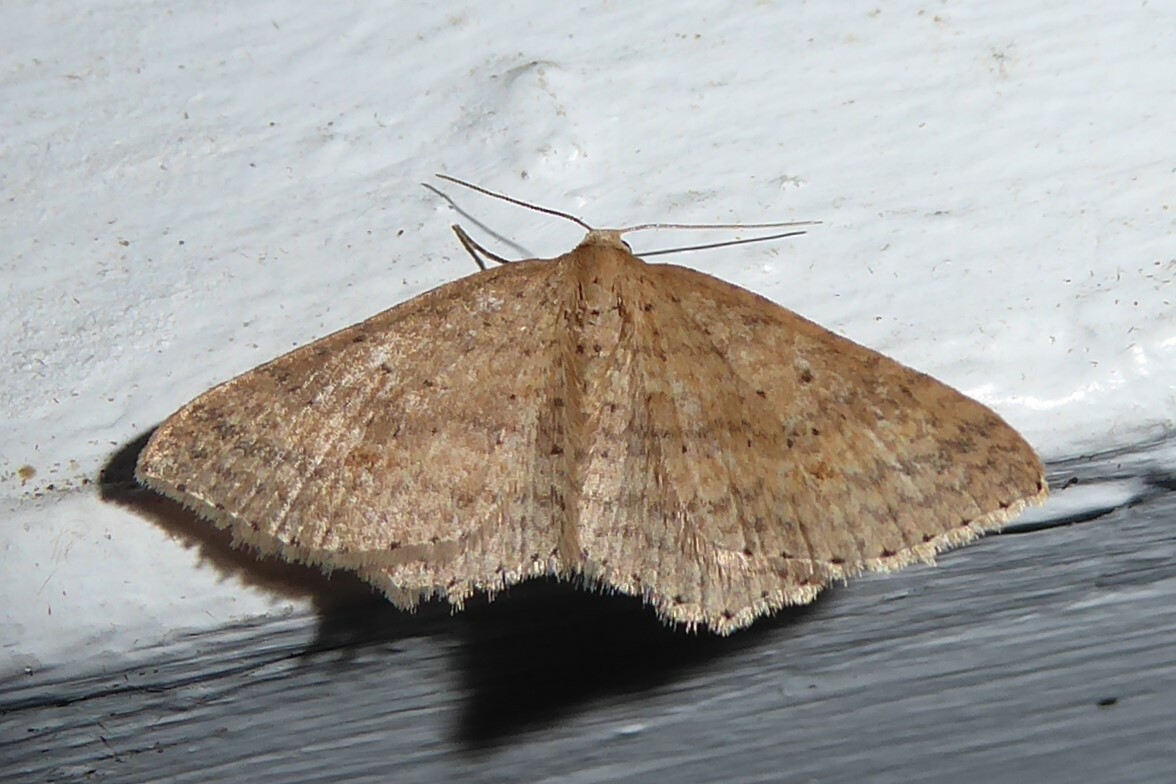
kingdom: Animalia
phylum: Arthropoda
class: Insecta
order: Lepidoptera
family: Geometridae
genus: Epicyme
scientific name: Epicyme rubropunctaria
